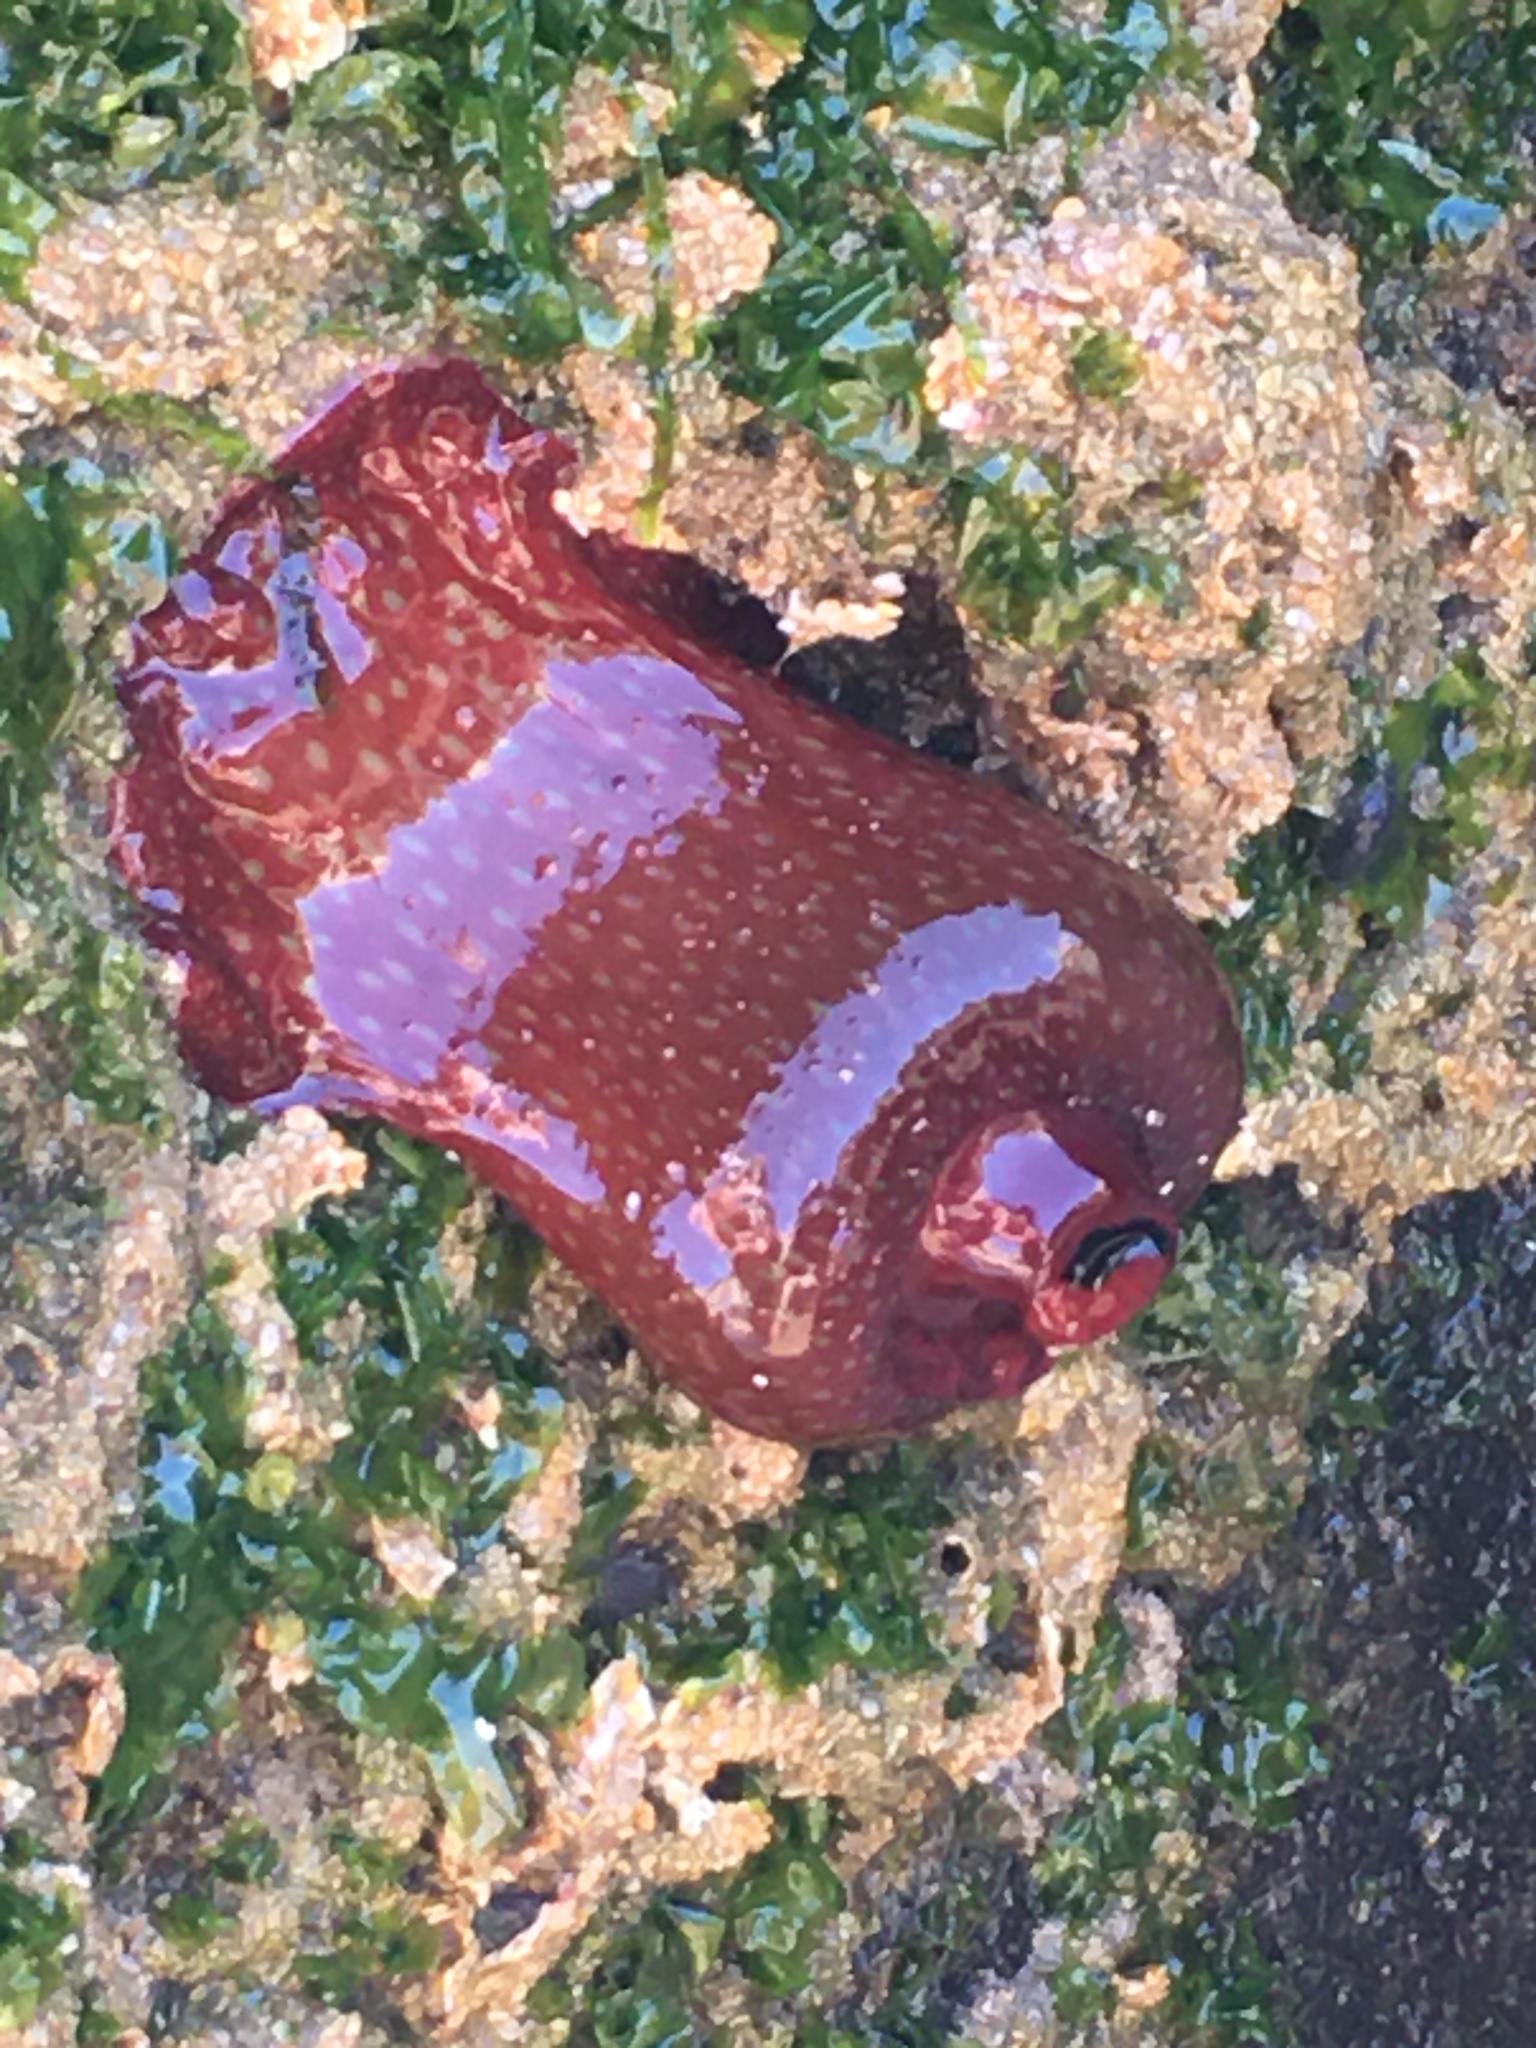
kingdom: Animalia
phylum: Cnidaria
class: Anthozoa
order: Actiniaria
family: Actiniidae
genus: Actinia
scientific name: Actinia fragacea
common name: Strawberry anemone
